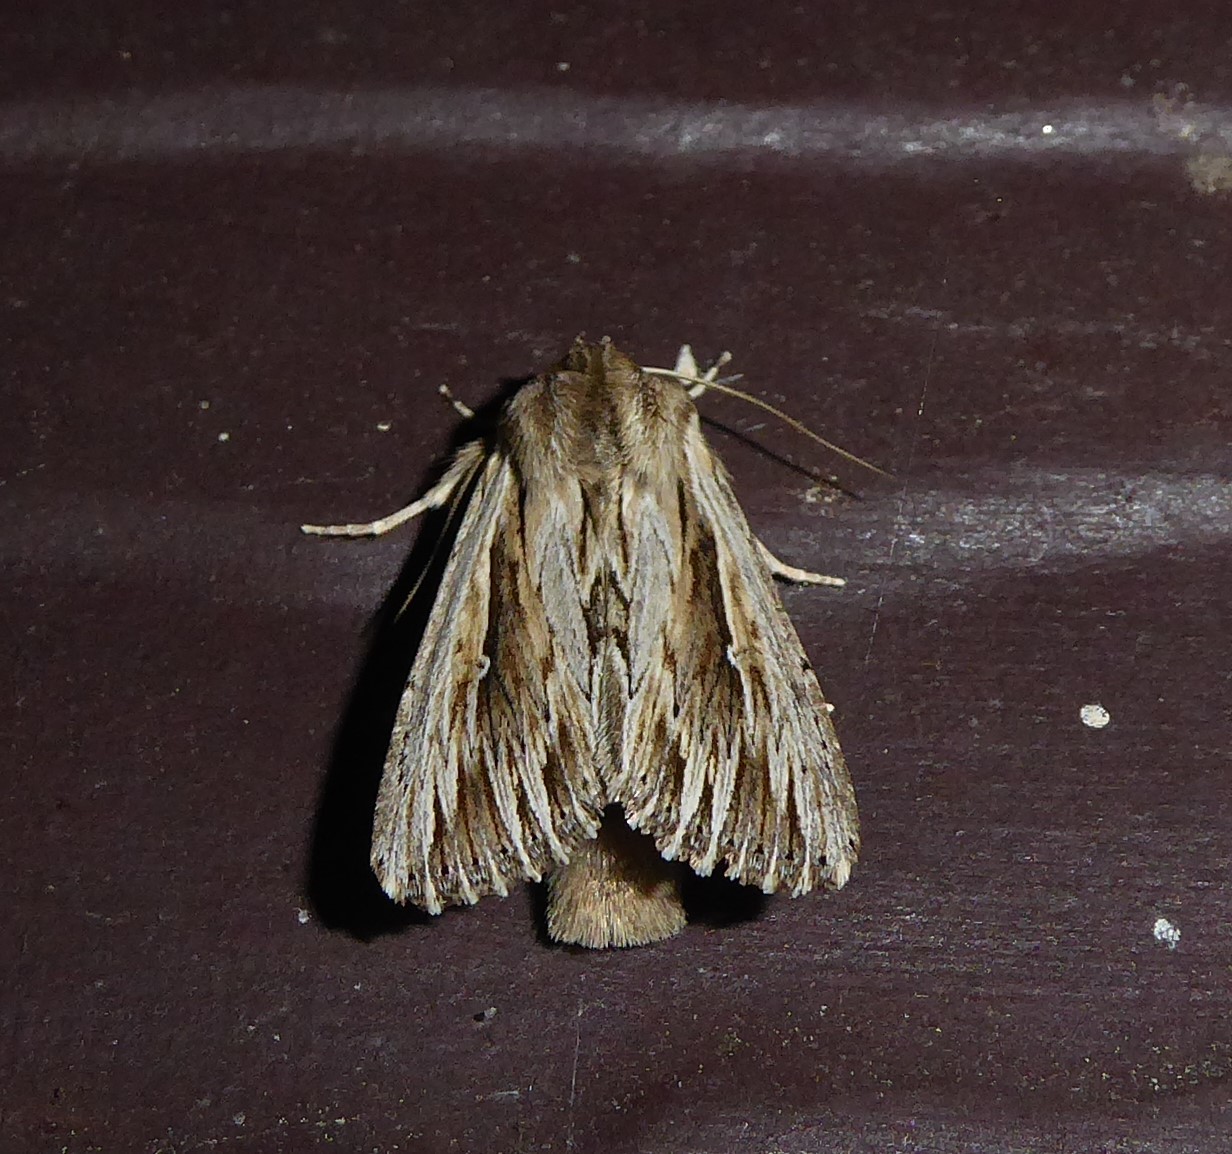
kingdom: Animalia
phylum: Arthropoda
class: Insecta
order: Lepidoptera
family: Noctuidae
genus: Persectania
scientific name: Persectania aversa
